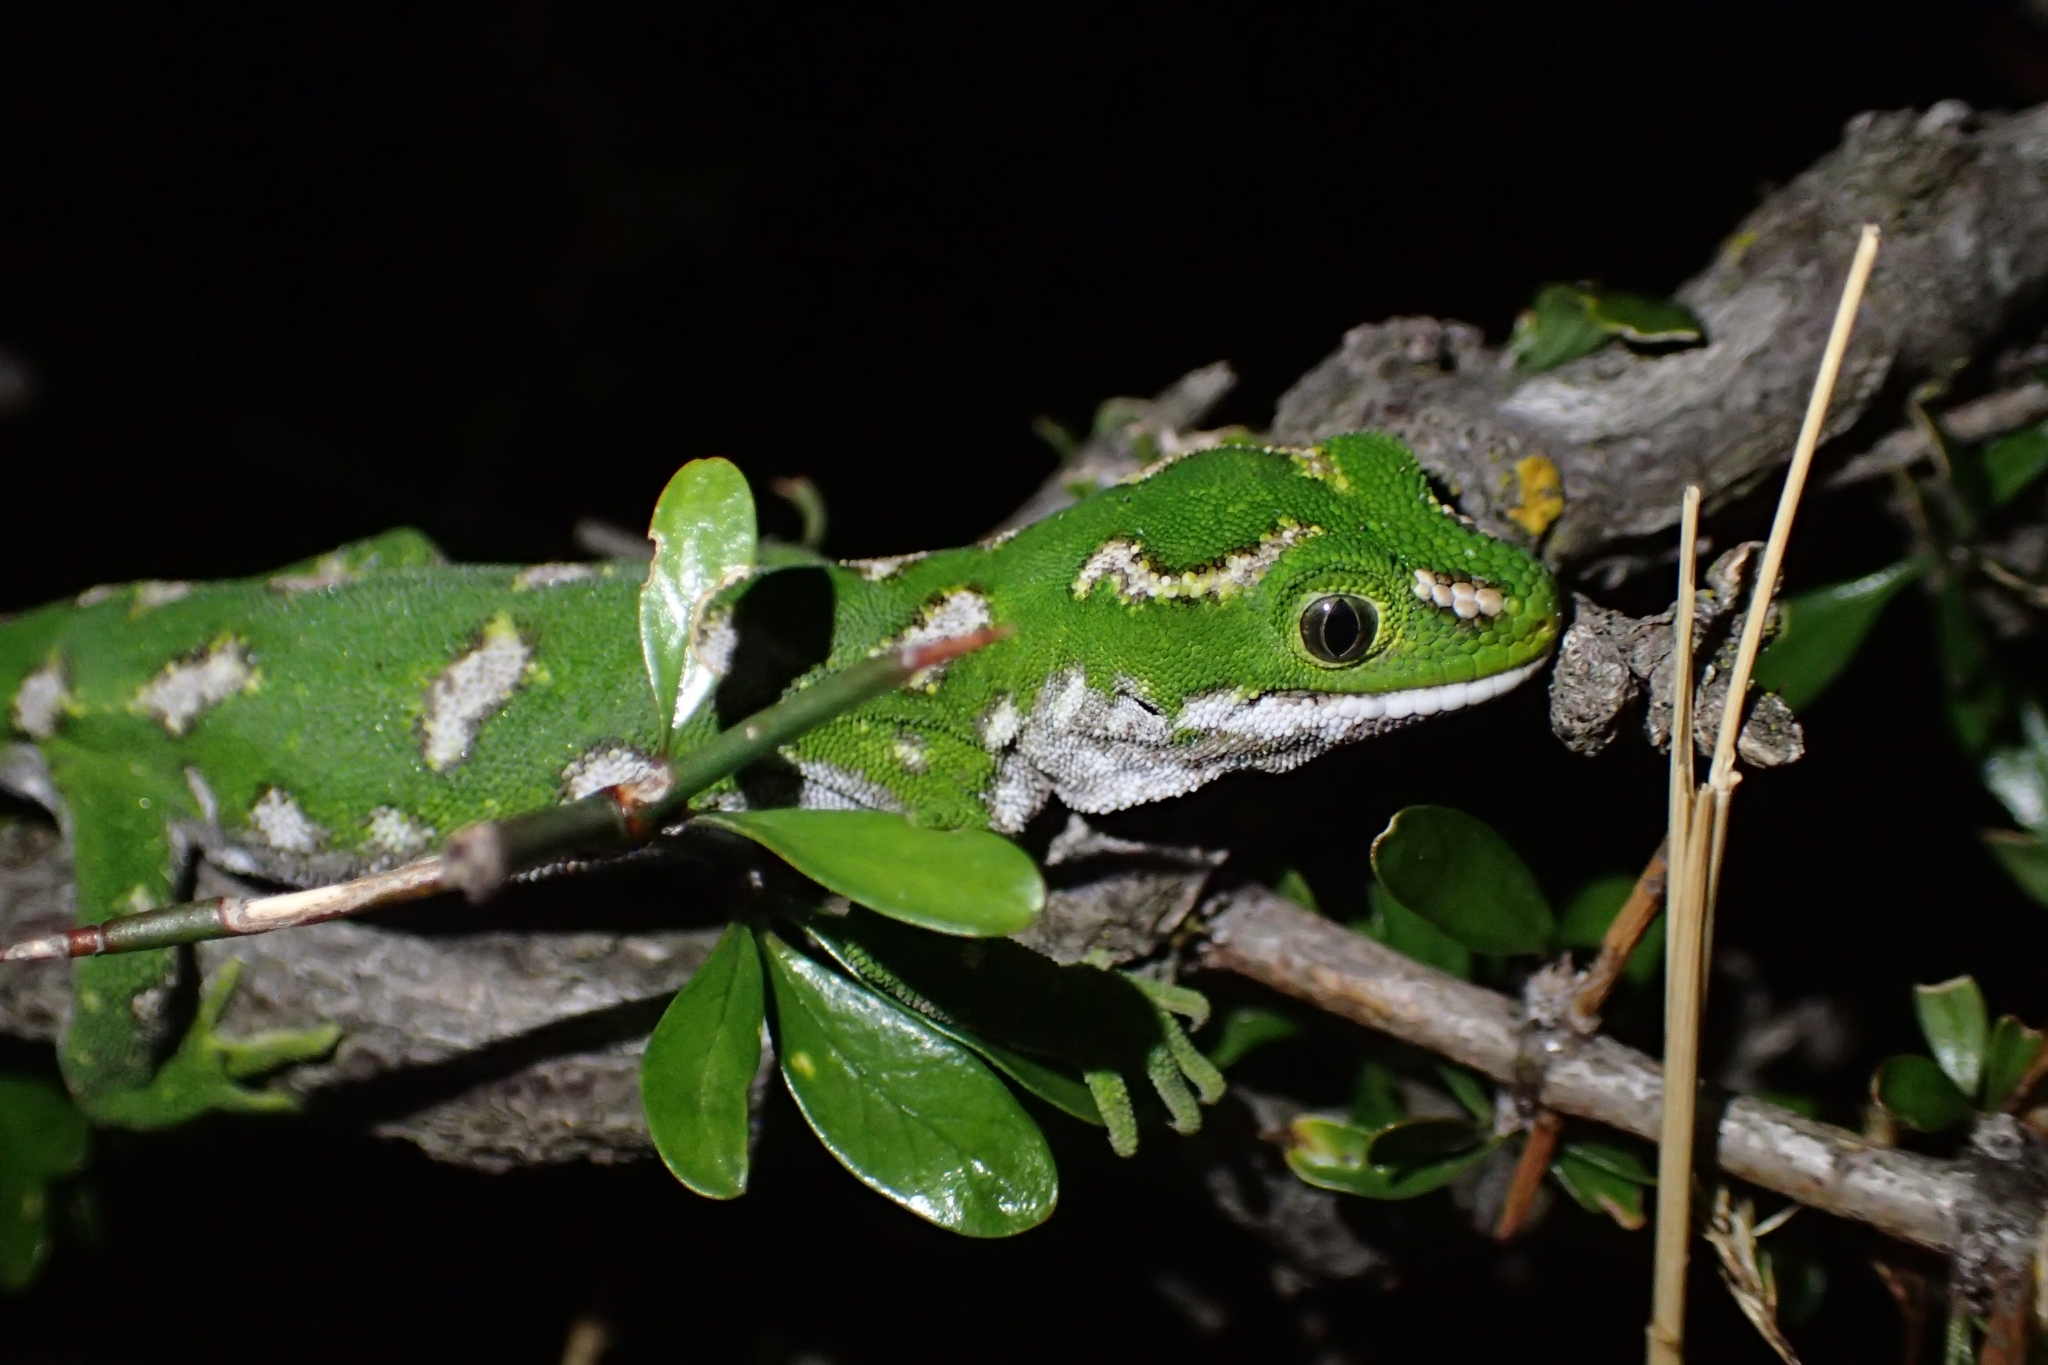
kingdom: Animalia
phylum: Chordata
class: Squamata
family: Diplodactylidae
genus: Naultinus
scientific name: Naultinus gemmeus
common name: Jewelled gecko
